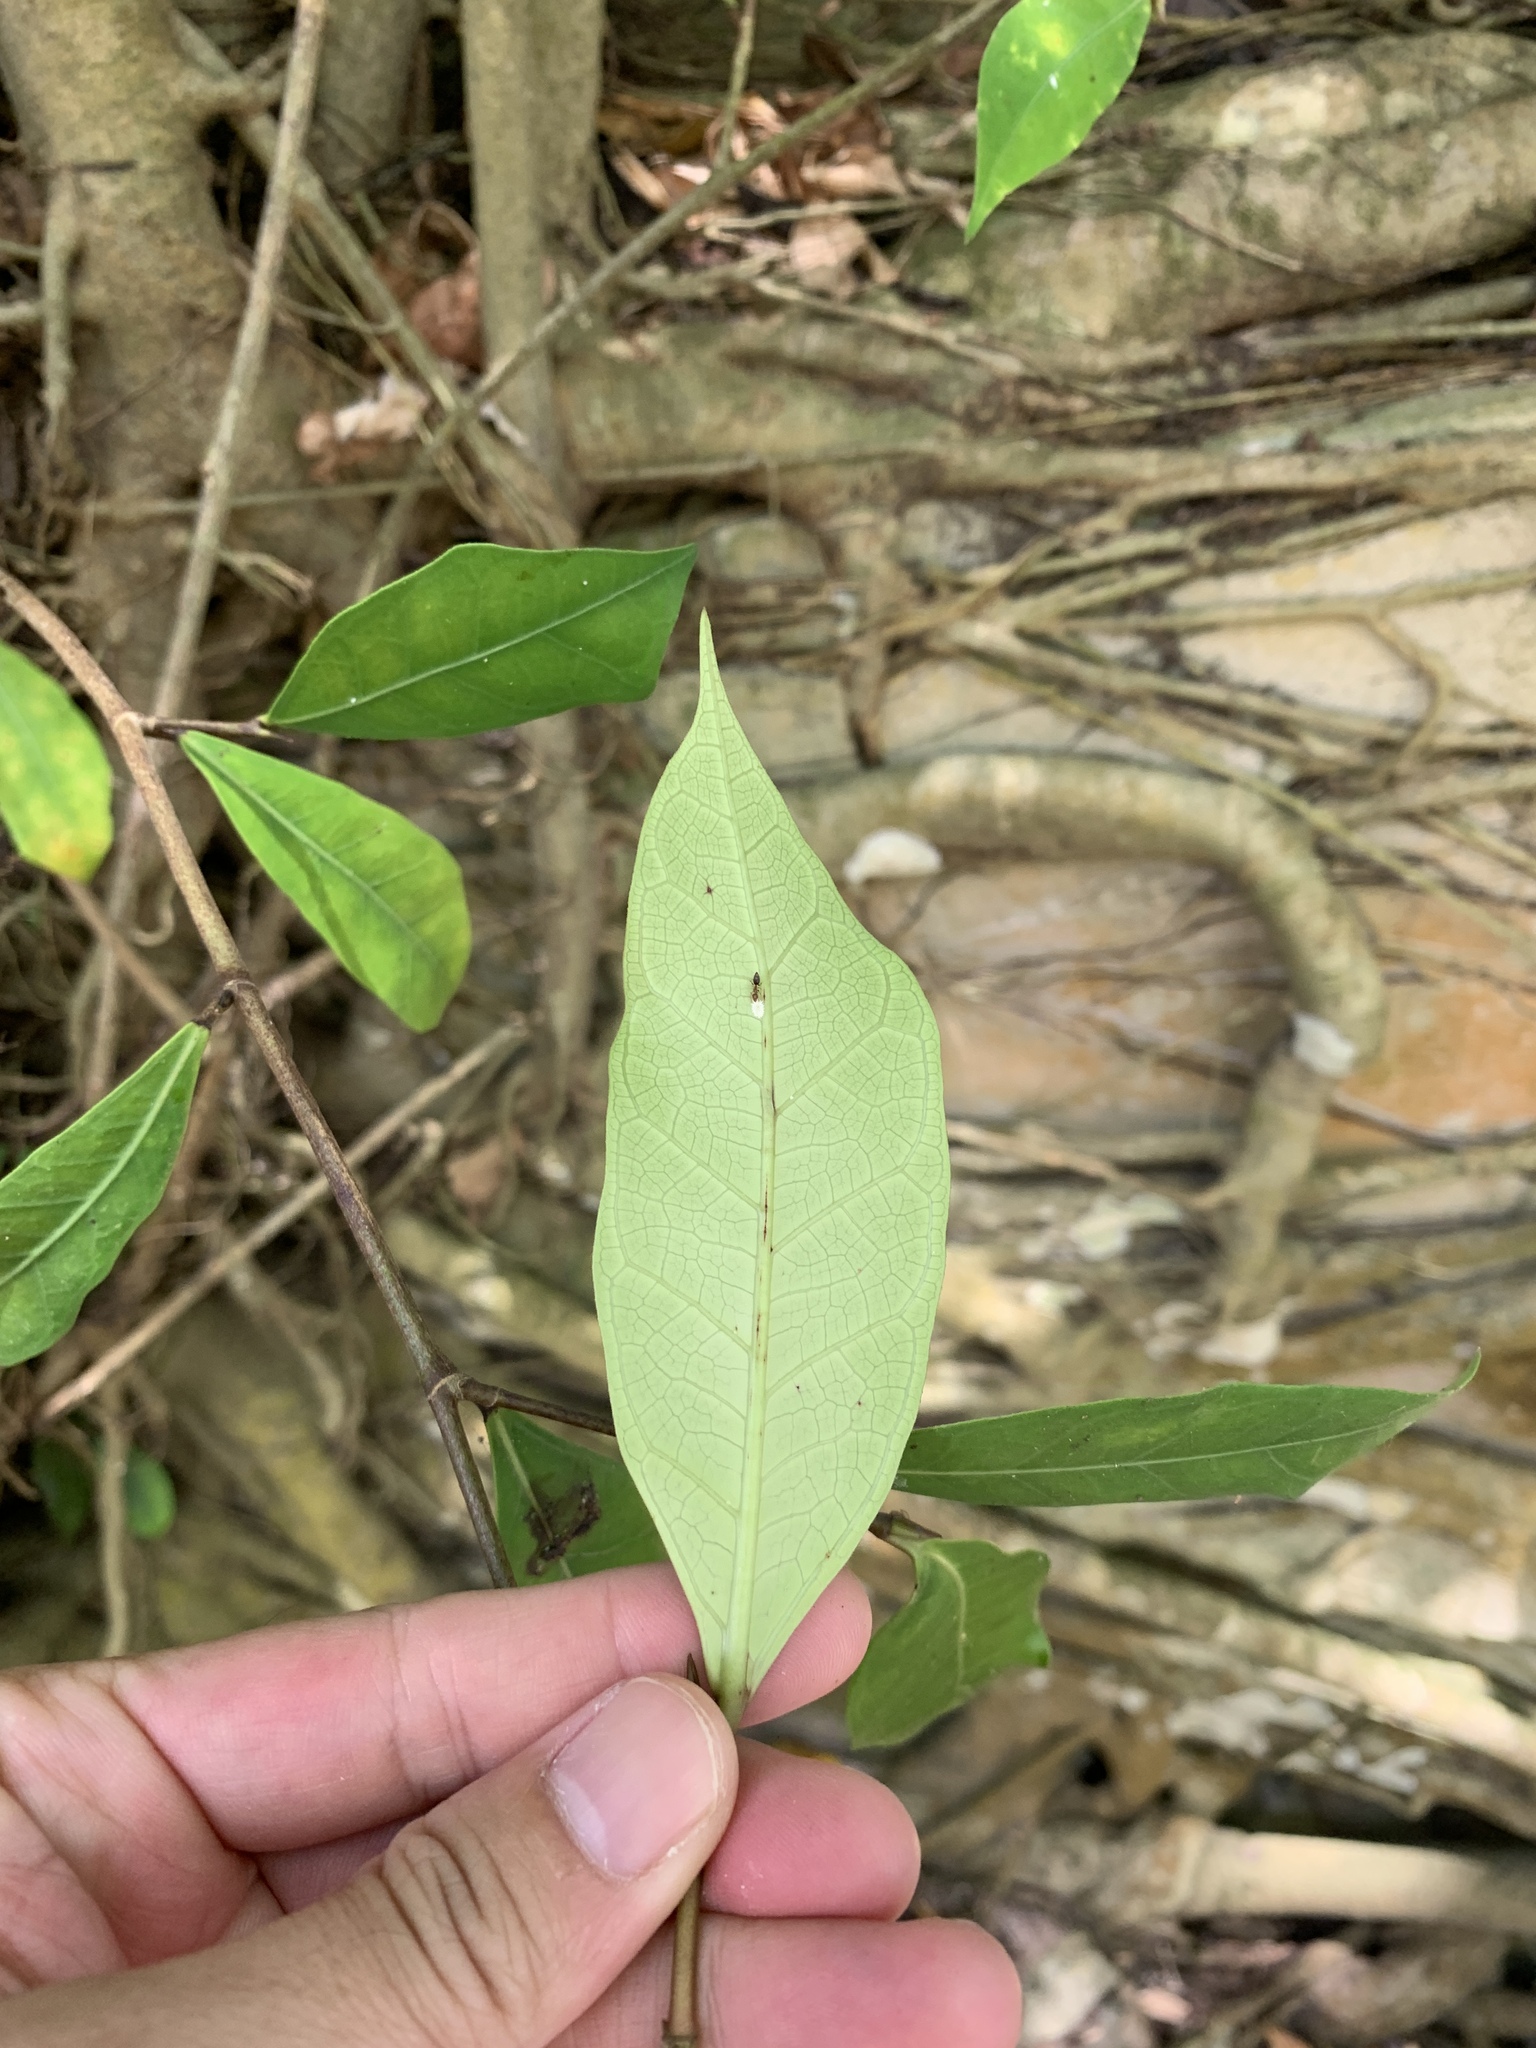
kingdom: Plantae
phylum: Tracheophyta
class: Magnoliopsida
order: Rosales
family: Moraceae
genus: Ficus
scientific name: Ficus tinctoria
